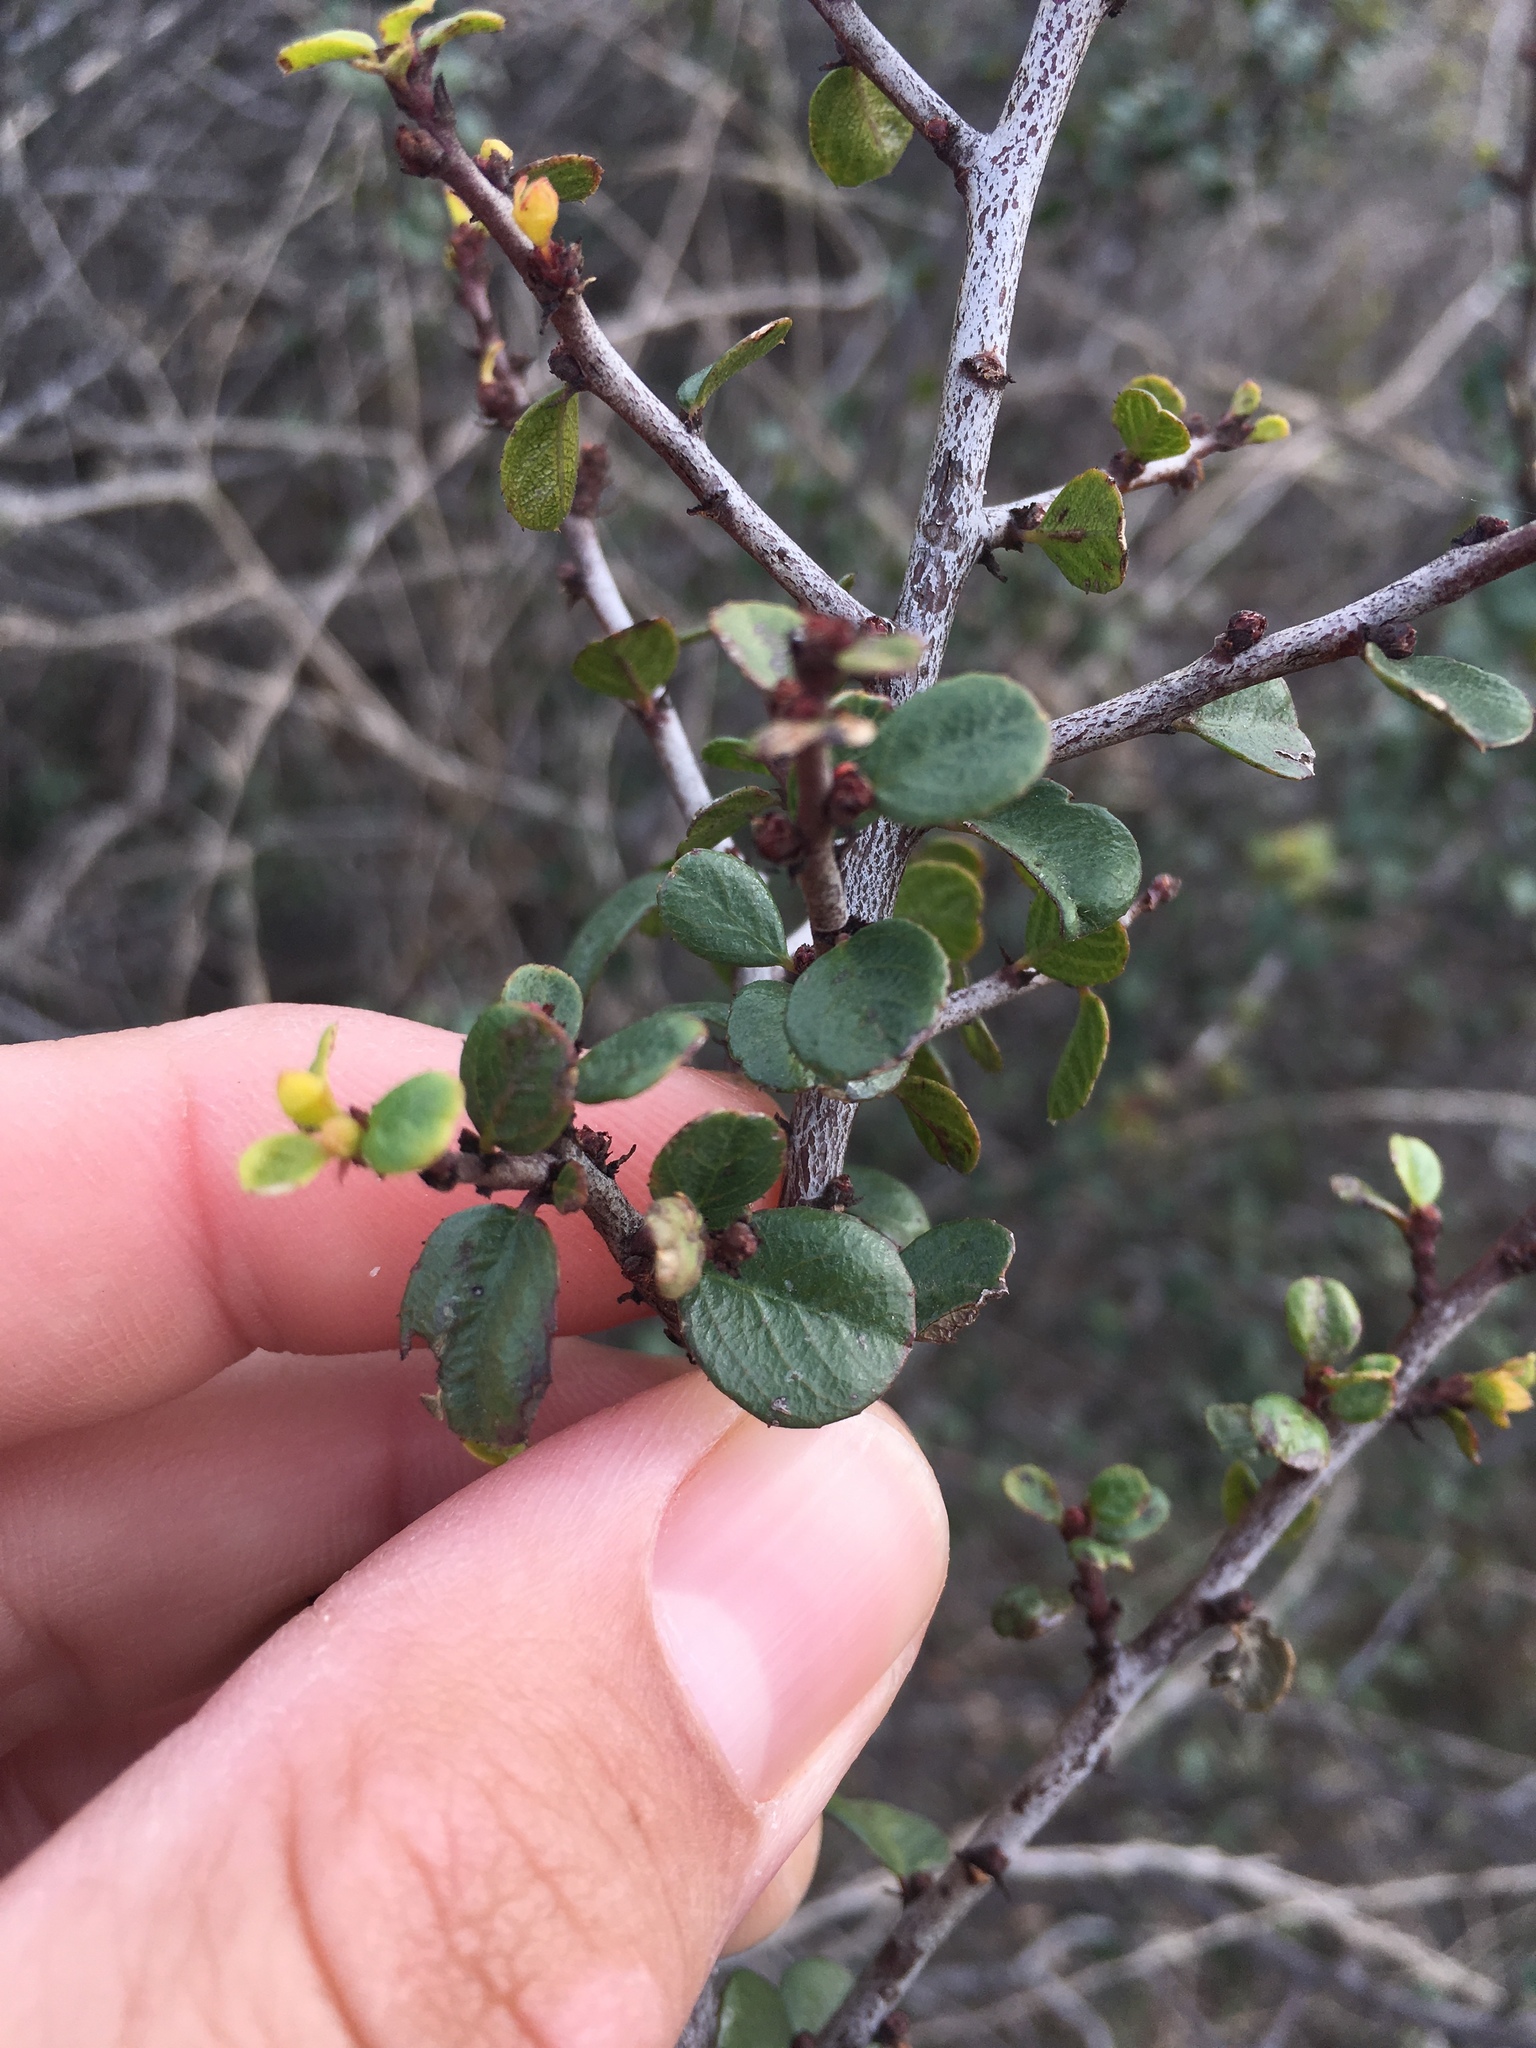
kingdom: Plantae
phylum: Tracheophyta
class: Magnoliopsida
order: Rosales
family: Rhamnaceae
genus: Endotropis
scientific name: Endotropis crocea
